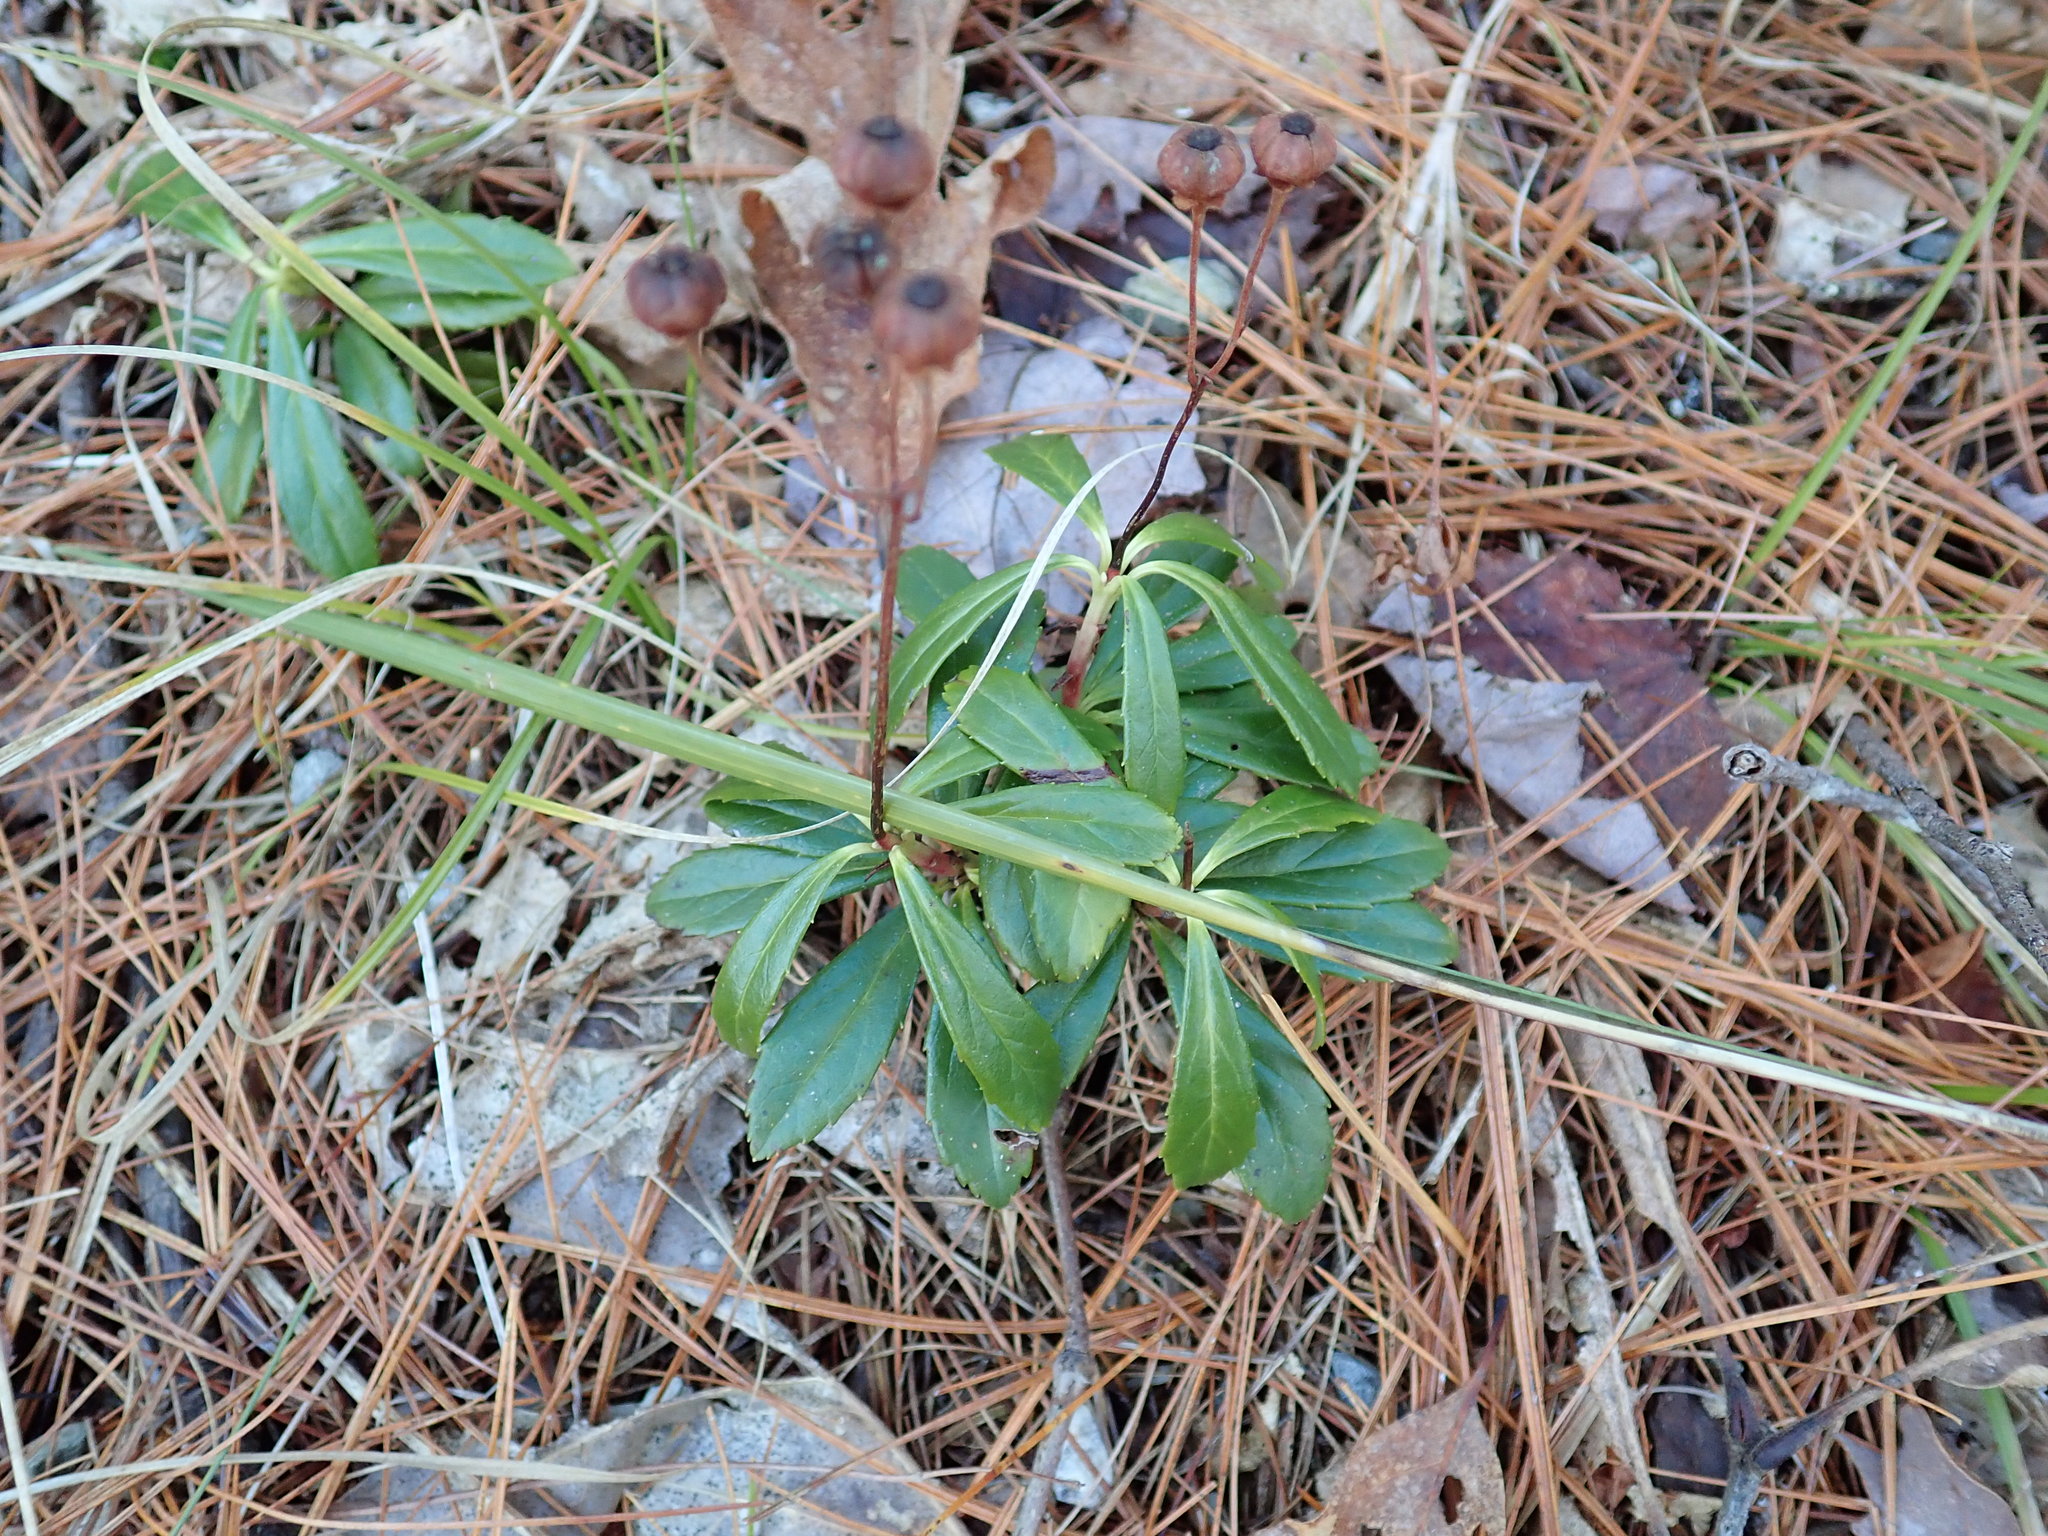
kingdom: Plantae
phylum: Tracheophyta
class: Magnoliopsida
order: Ericales
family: Ericaceae
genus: Chimaphila
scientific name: Chimaphila umbellata
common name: Pipsissewa
